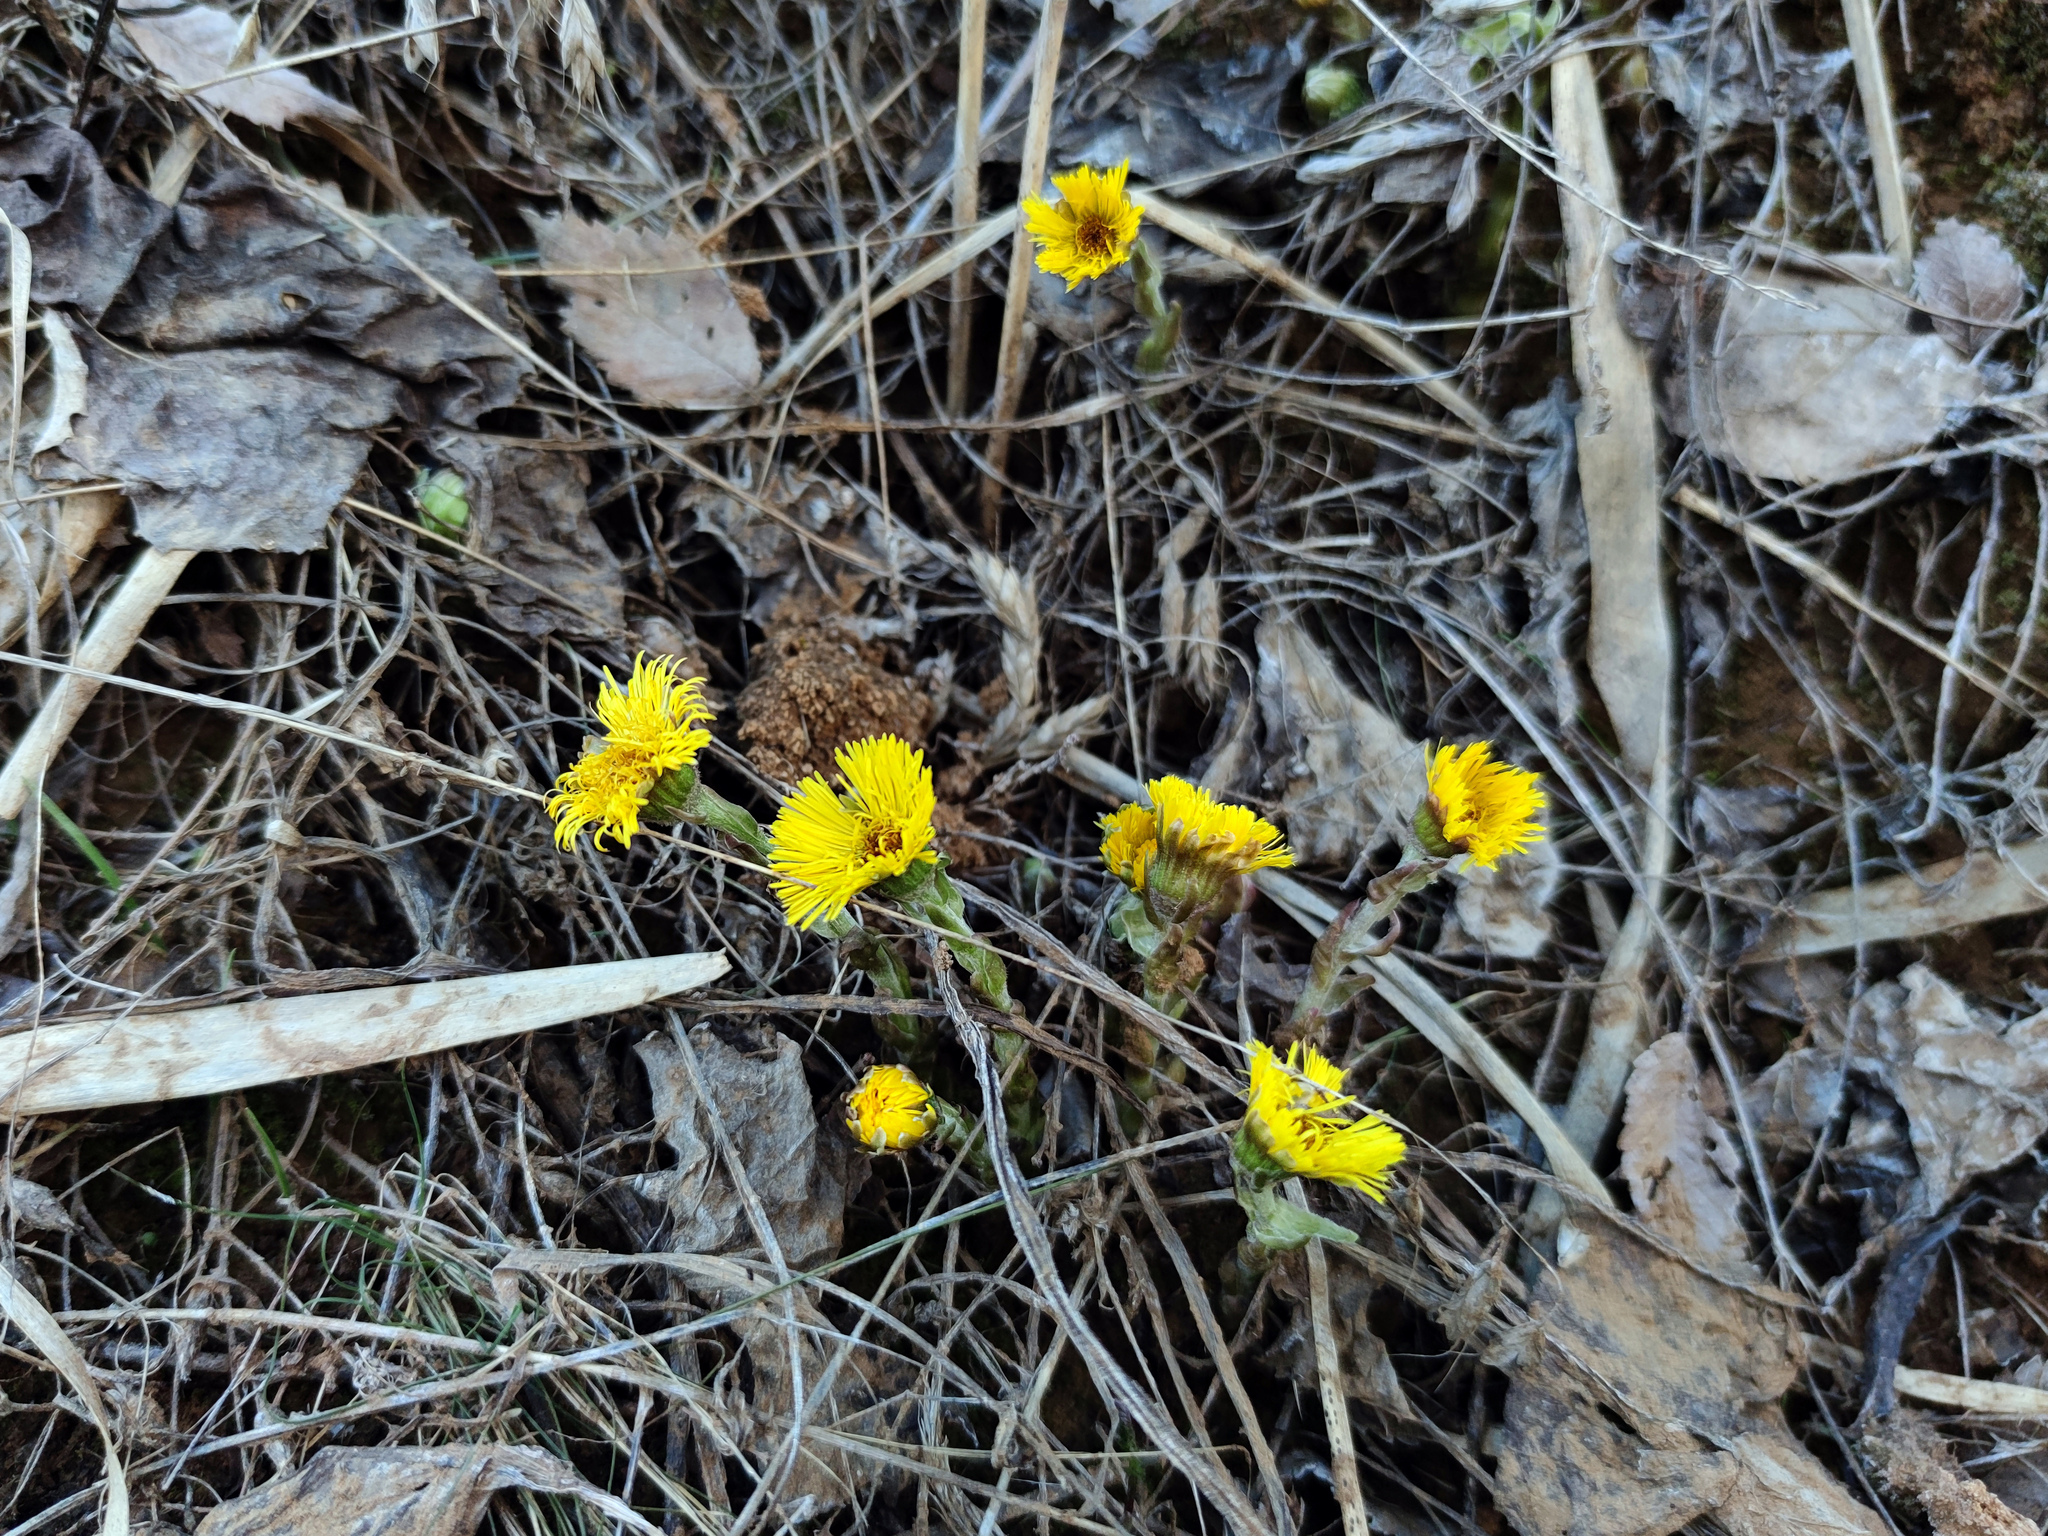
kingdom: Plantae
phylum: Tracheophyta
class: Magnoliopsida
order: Asterales
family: Asteraceae
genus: Tussilago
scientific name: Tussilago farfara
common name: Coltsfoot
